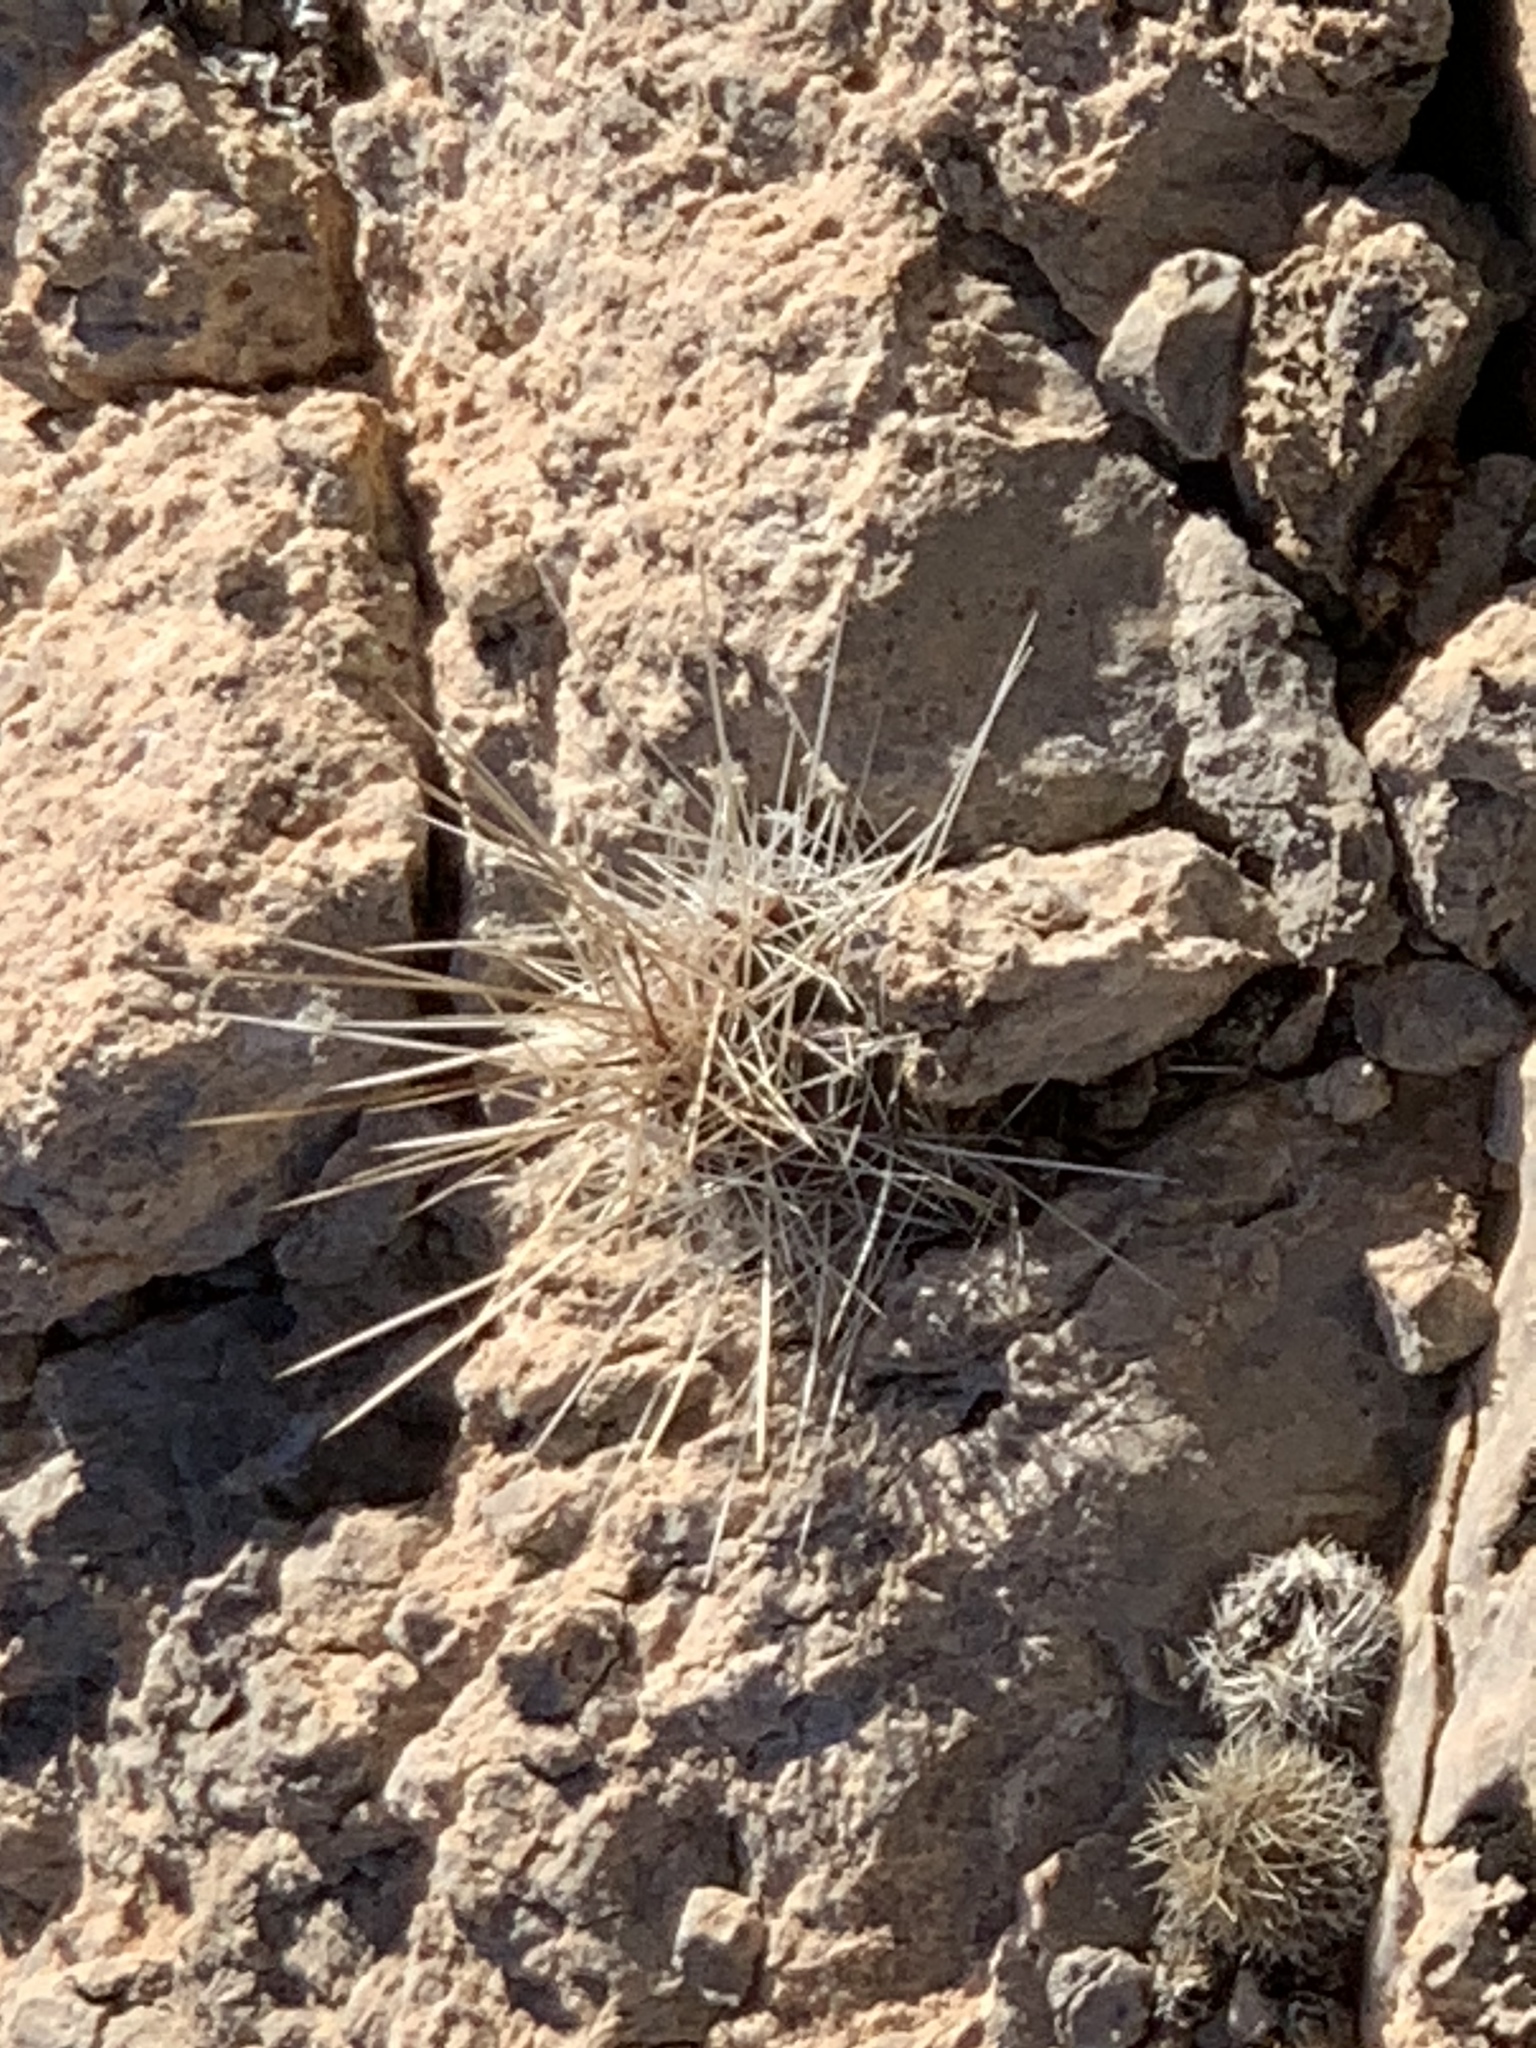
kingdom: Plantae
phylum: Tracheophyta
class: Magnoliopsida
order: Caryophyllales
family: Cactaceae
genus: Echinocereus
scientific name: Echinocereus stramineus
